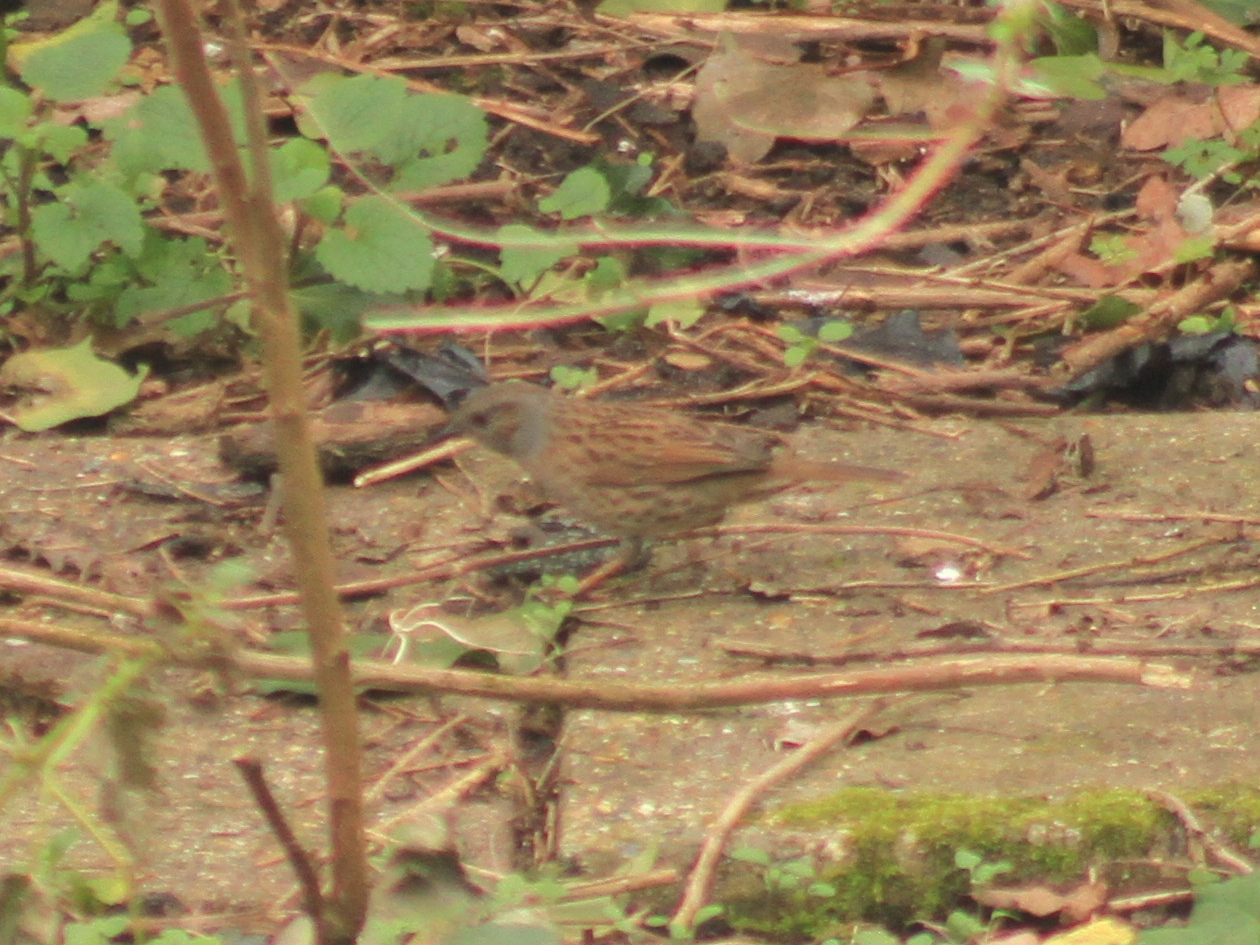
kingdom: Animalia
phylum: Chordata
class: Aves
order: Passeriformes
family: Prunellidae
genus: Prunella
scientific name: Prunella modularis
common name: Dunnock
